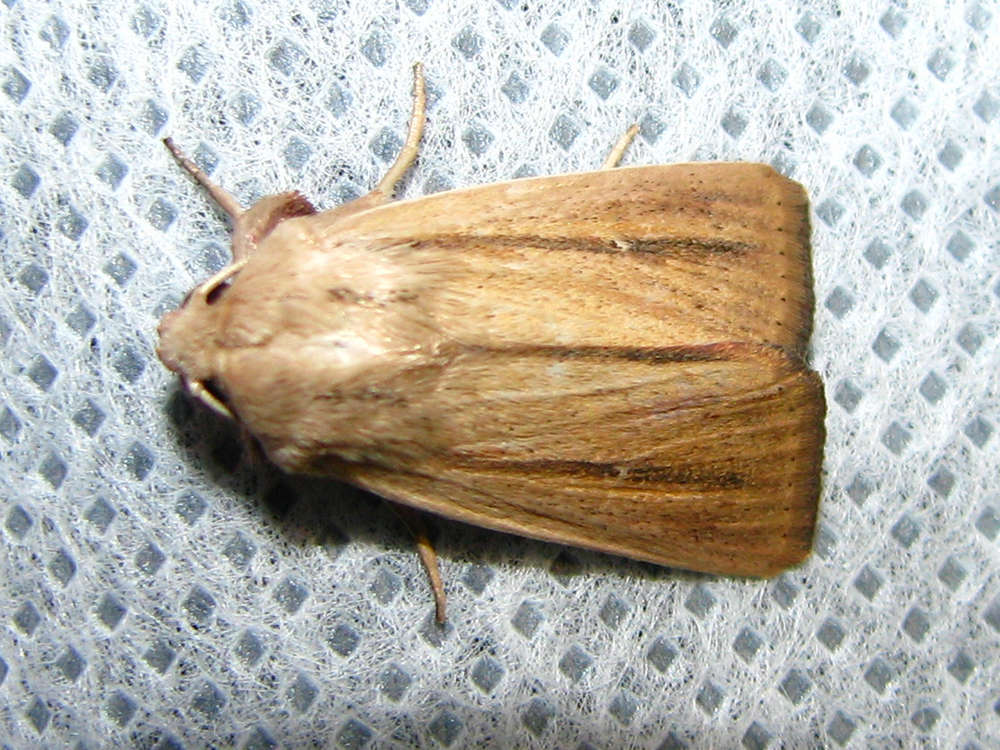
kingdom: Animalia
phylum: Arthropoda
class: Insecta
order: Lepidoptera
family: Noctuidae
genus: Leucania
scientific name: Leucania diatrecta
